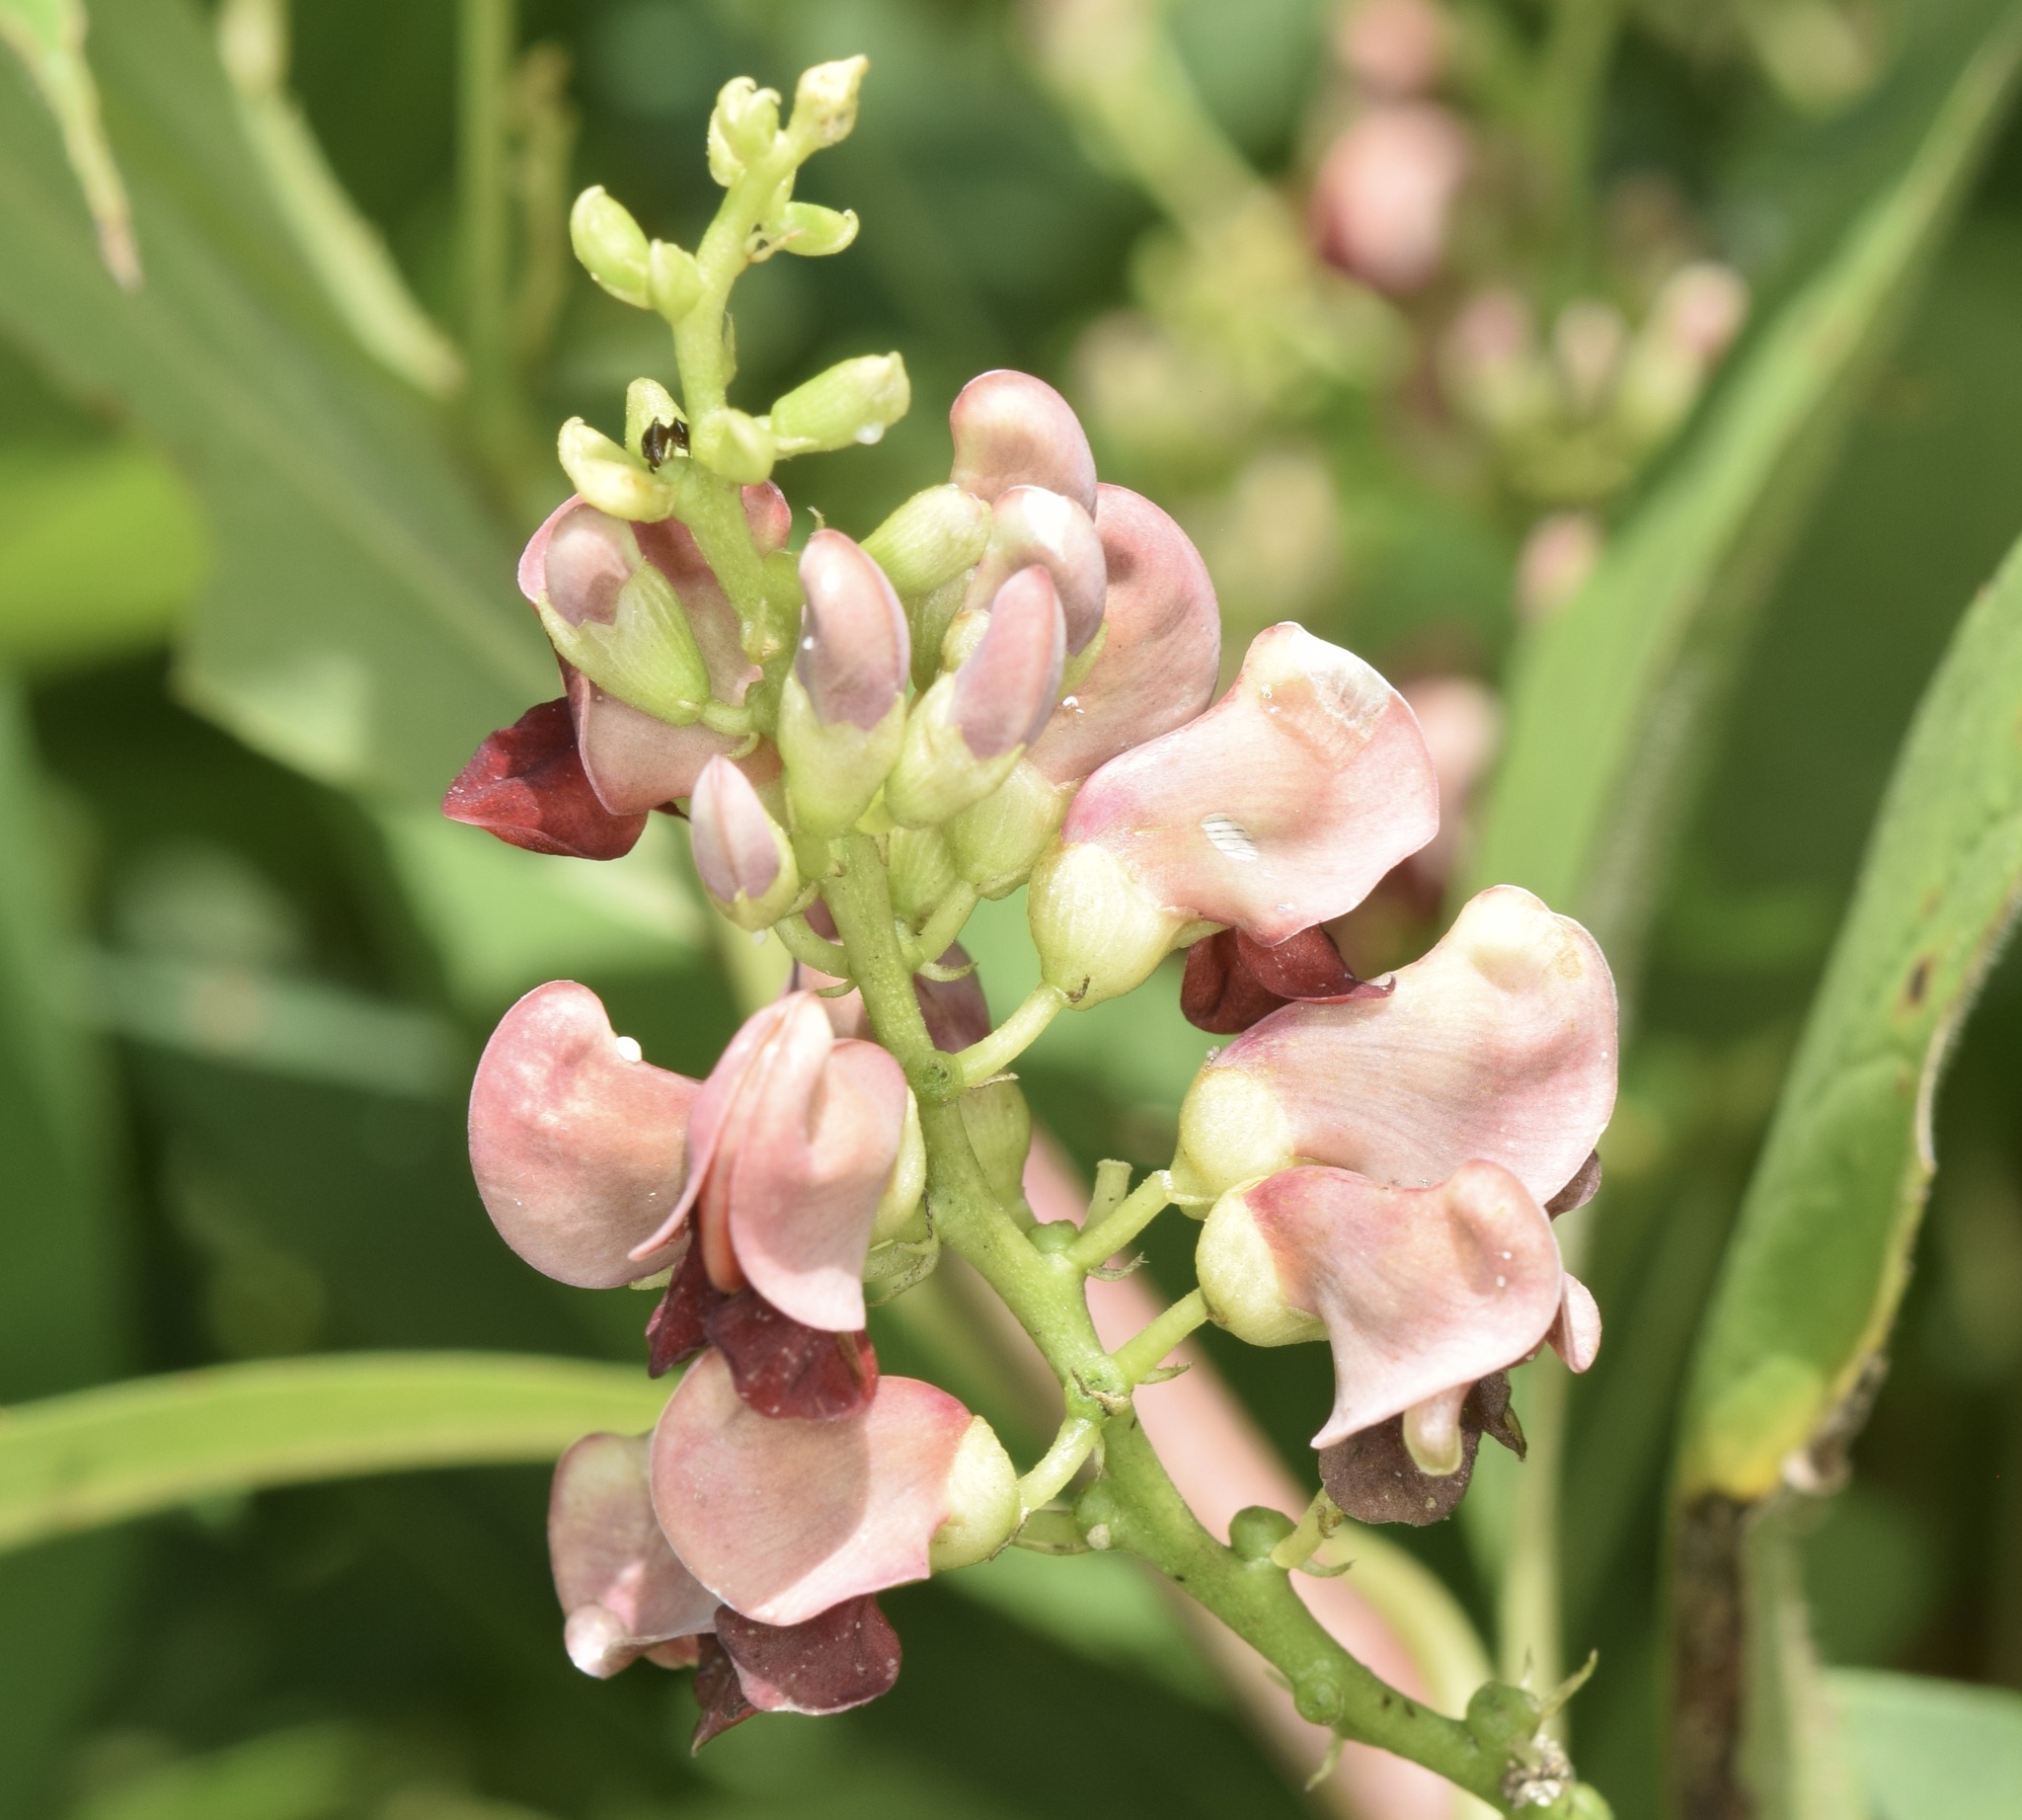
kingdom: Plantae
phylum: Tracheophyta
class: Magnoliopsida
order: Fabales
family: Fabaceae
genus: Apios
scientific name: Apios americana
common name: American potato-bean
